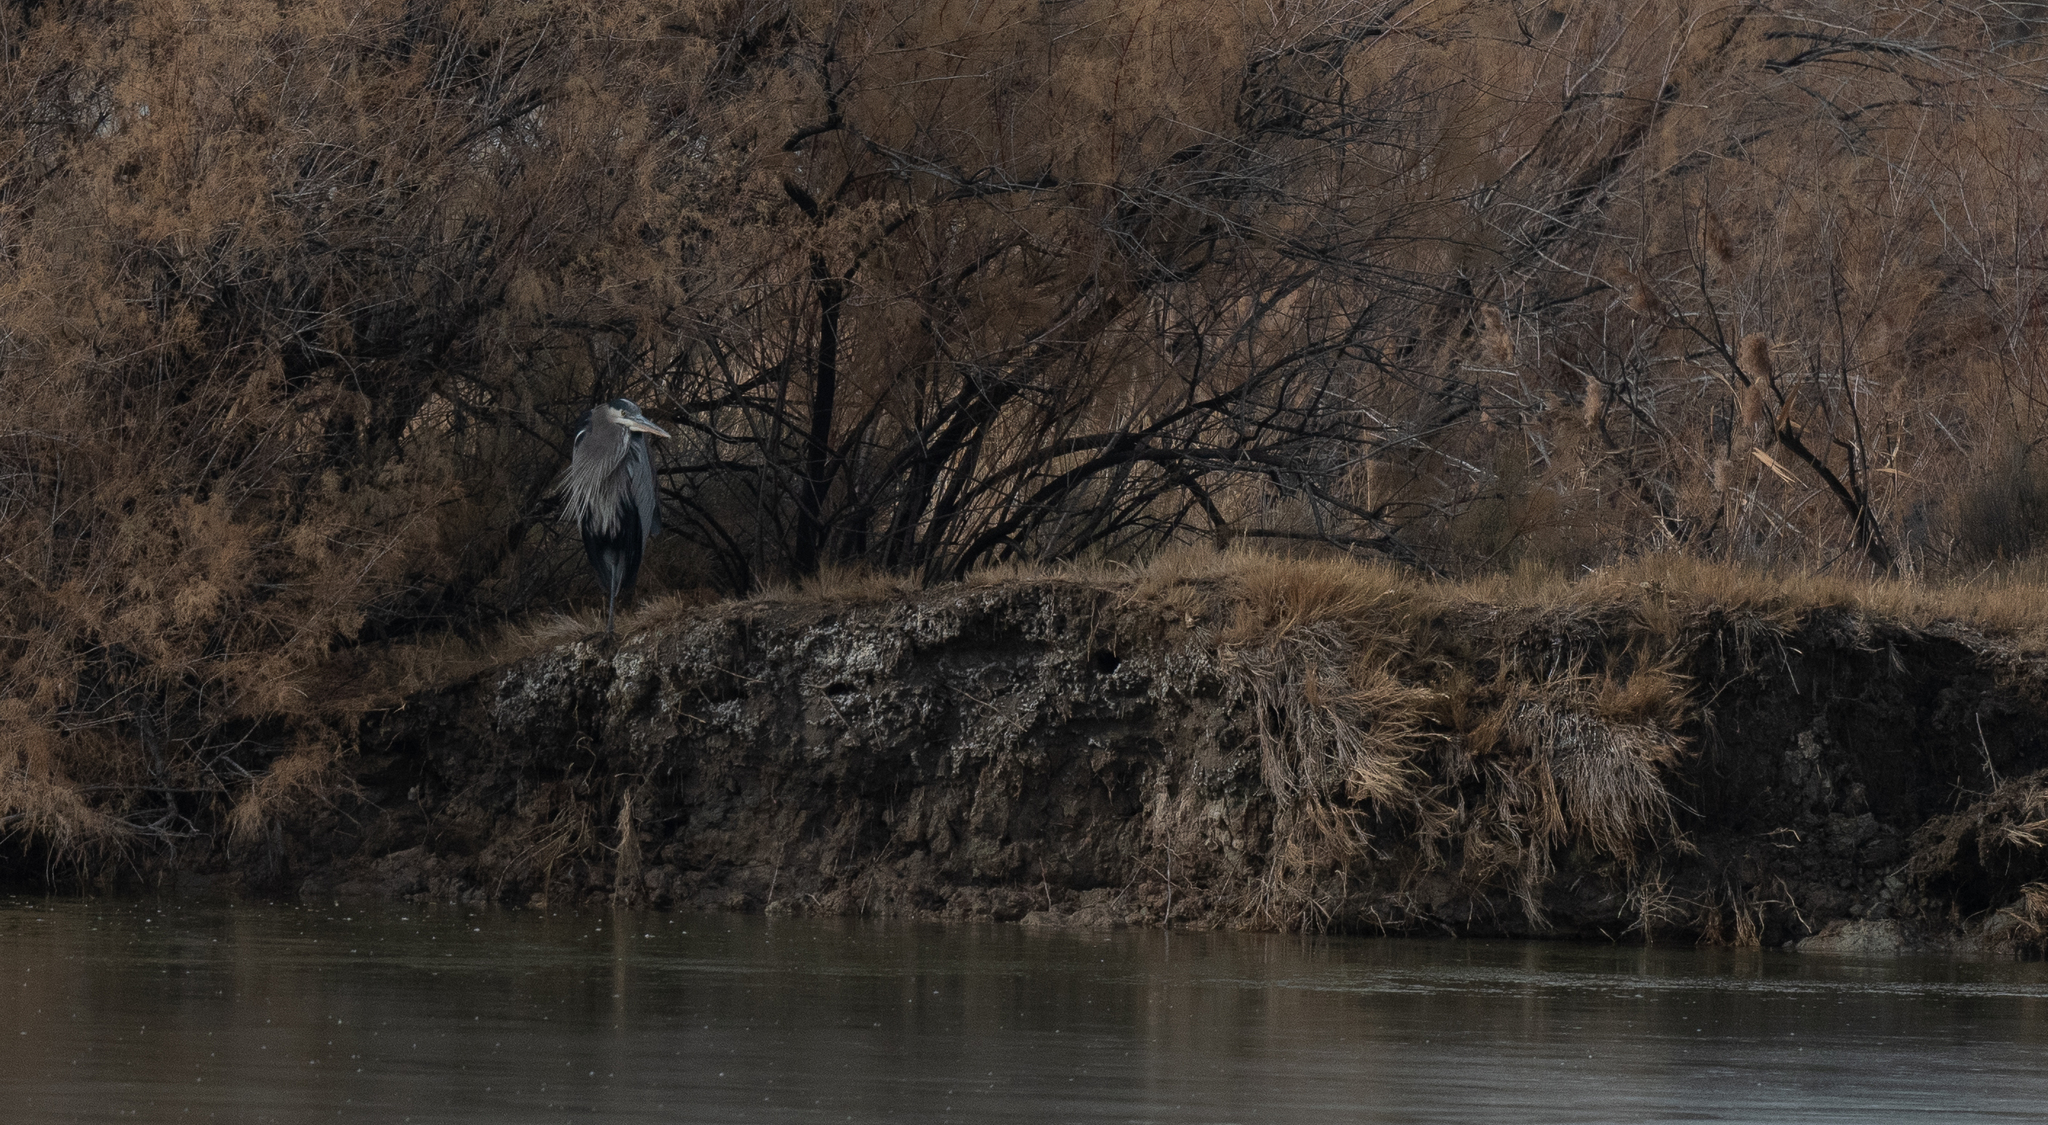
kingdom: Animalia
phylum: Chordata
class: Aves
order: Pelecaniformes
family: Ardeidae
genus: Ardea
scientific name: Ardea herodias
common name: Great blue heron
